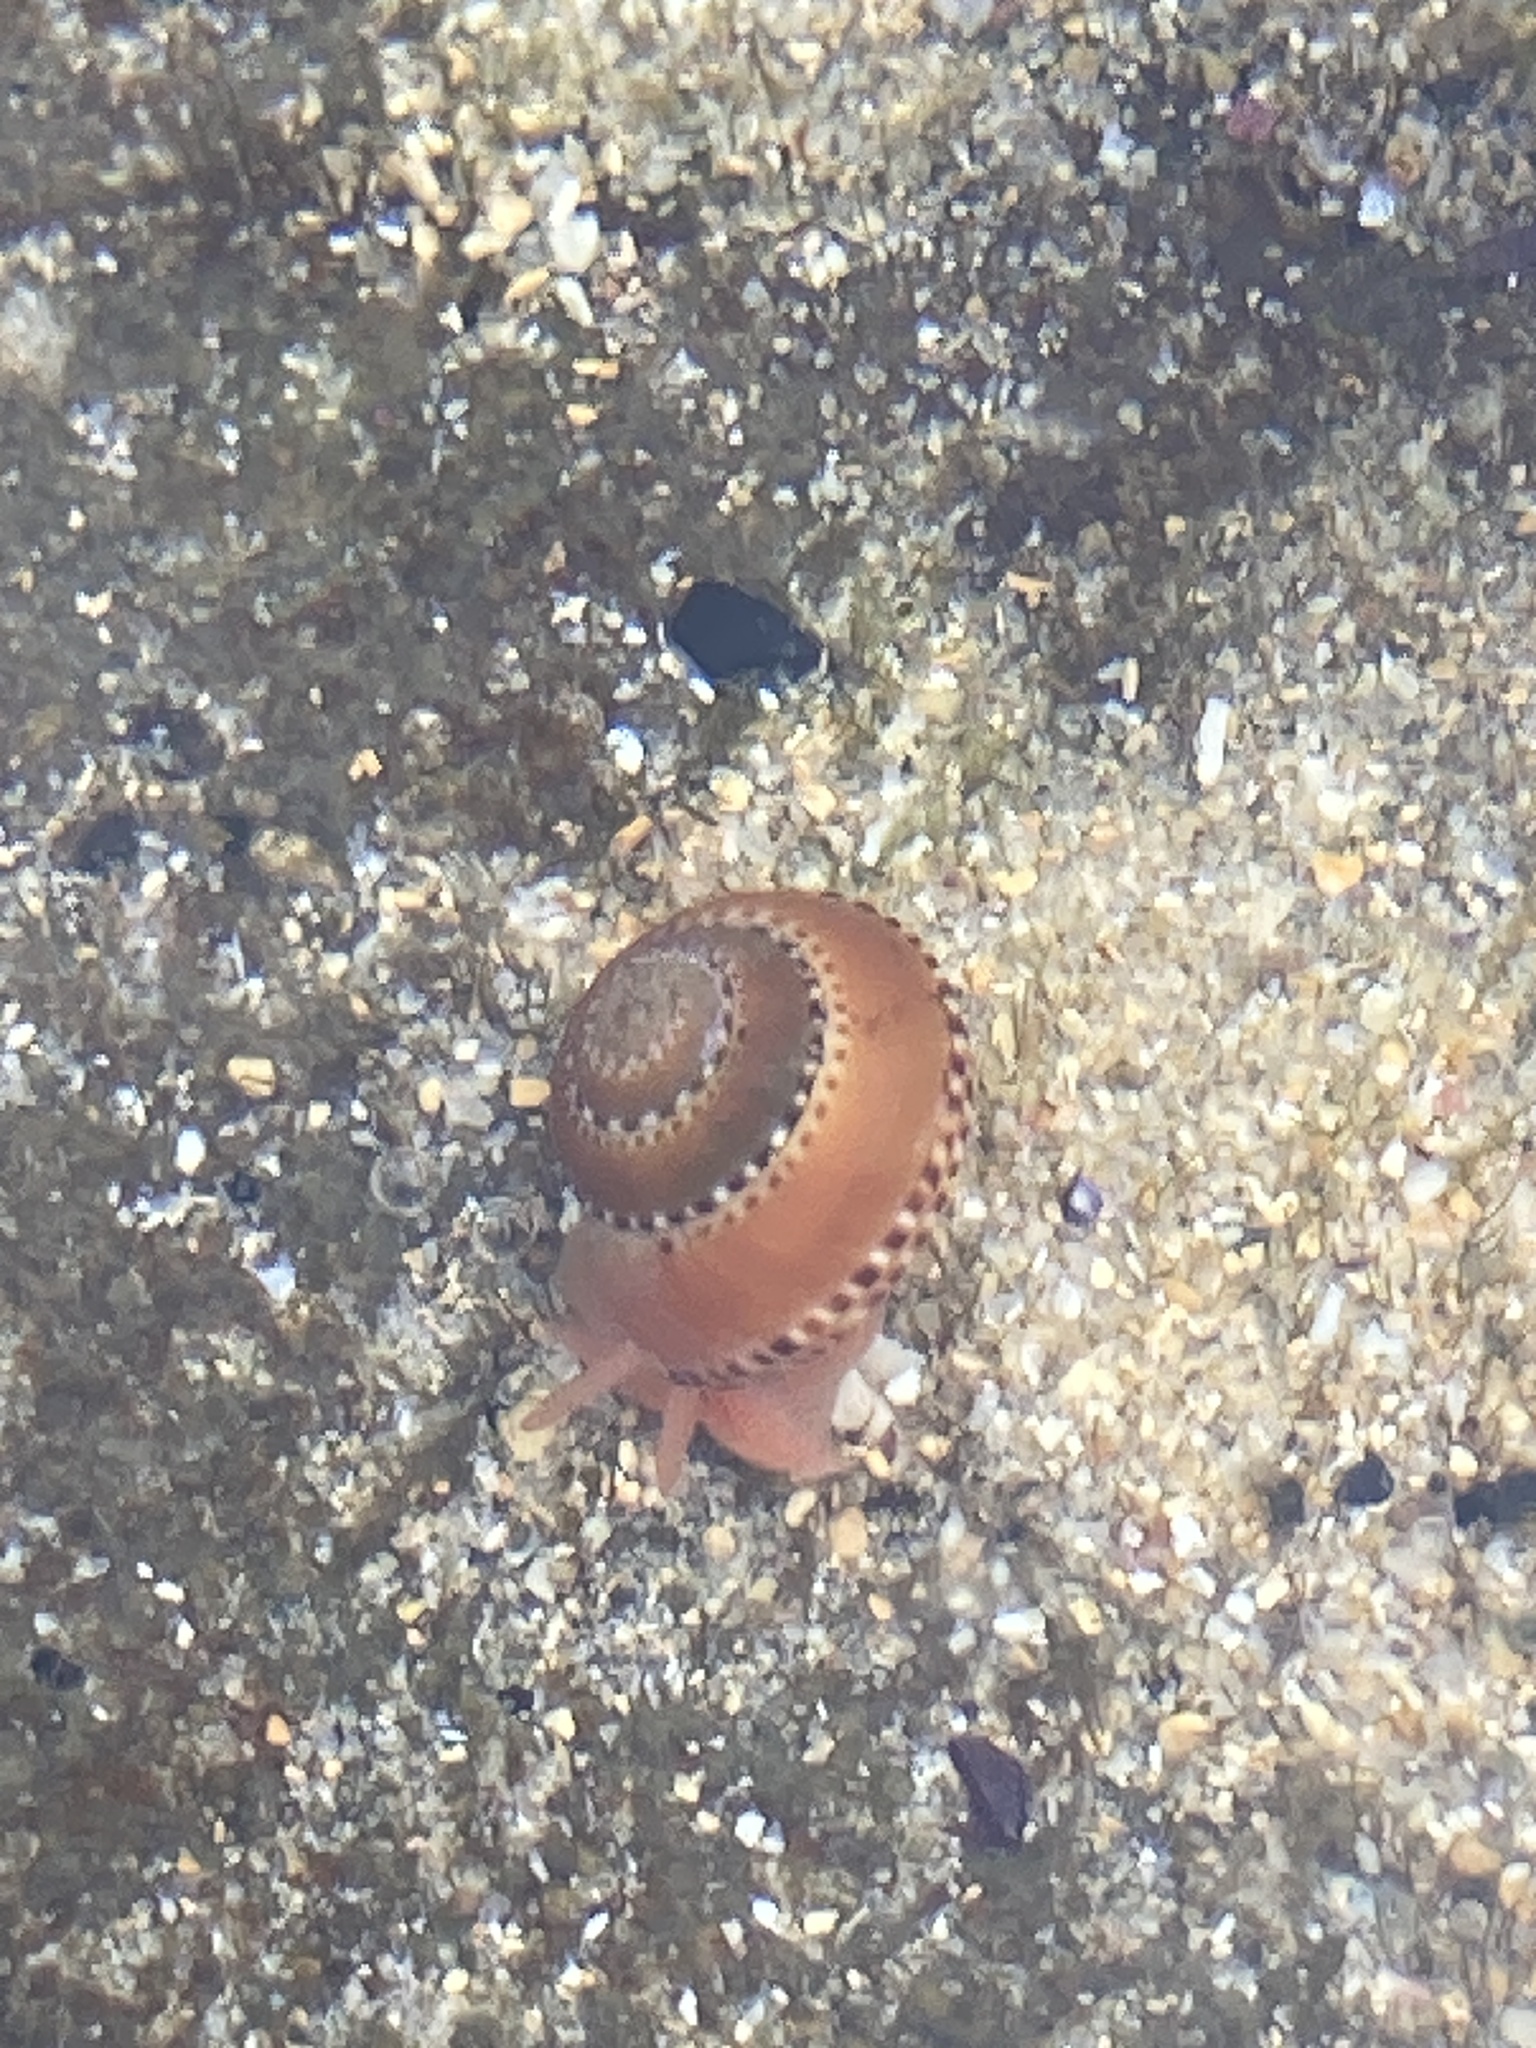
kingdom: Animalia
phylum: Mollusca
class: Gastropoda
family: Architectonicidae
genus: Philippia
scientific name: Philippia lutea
